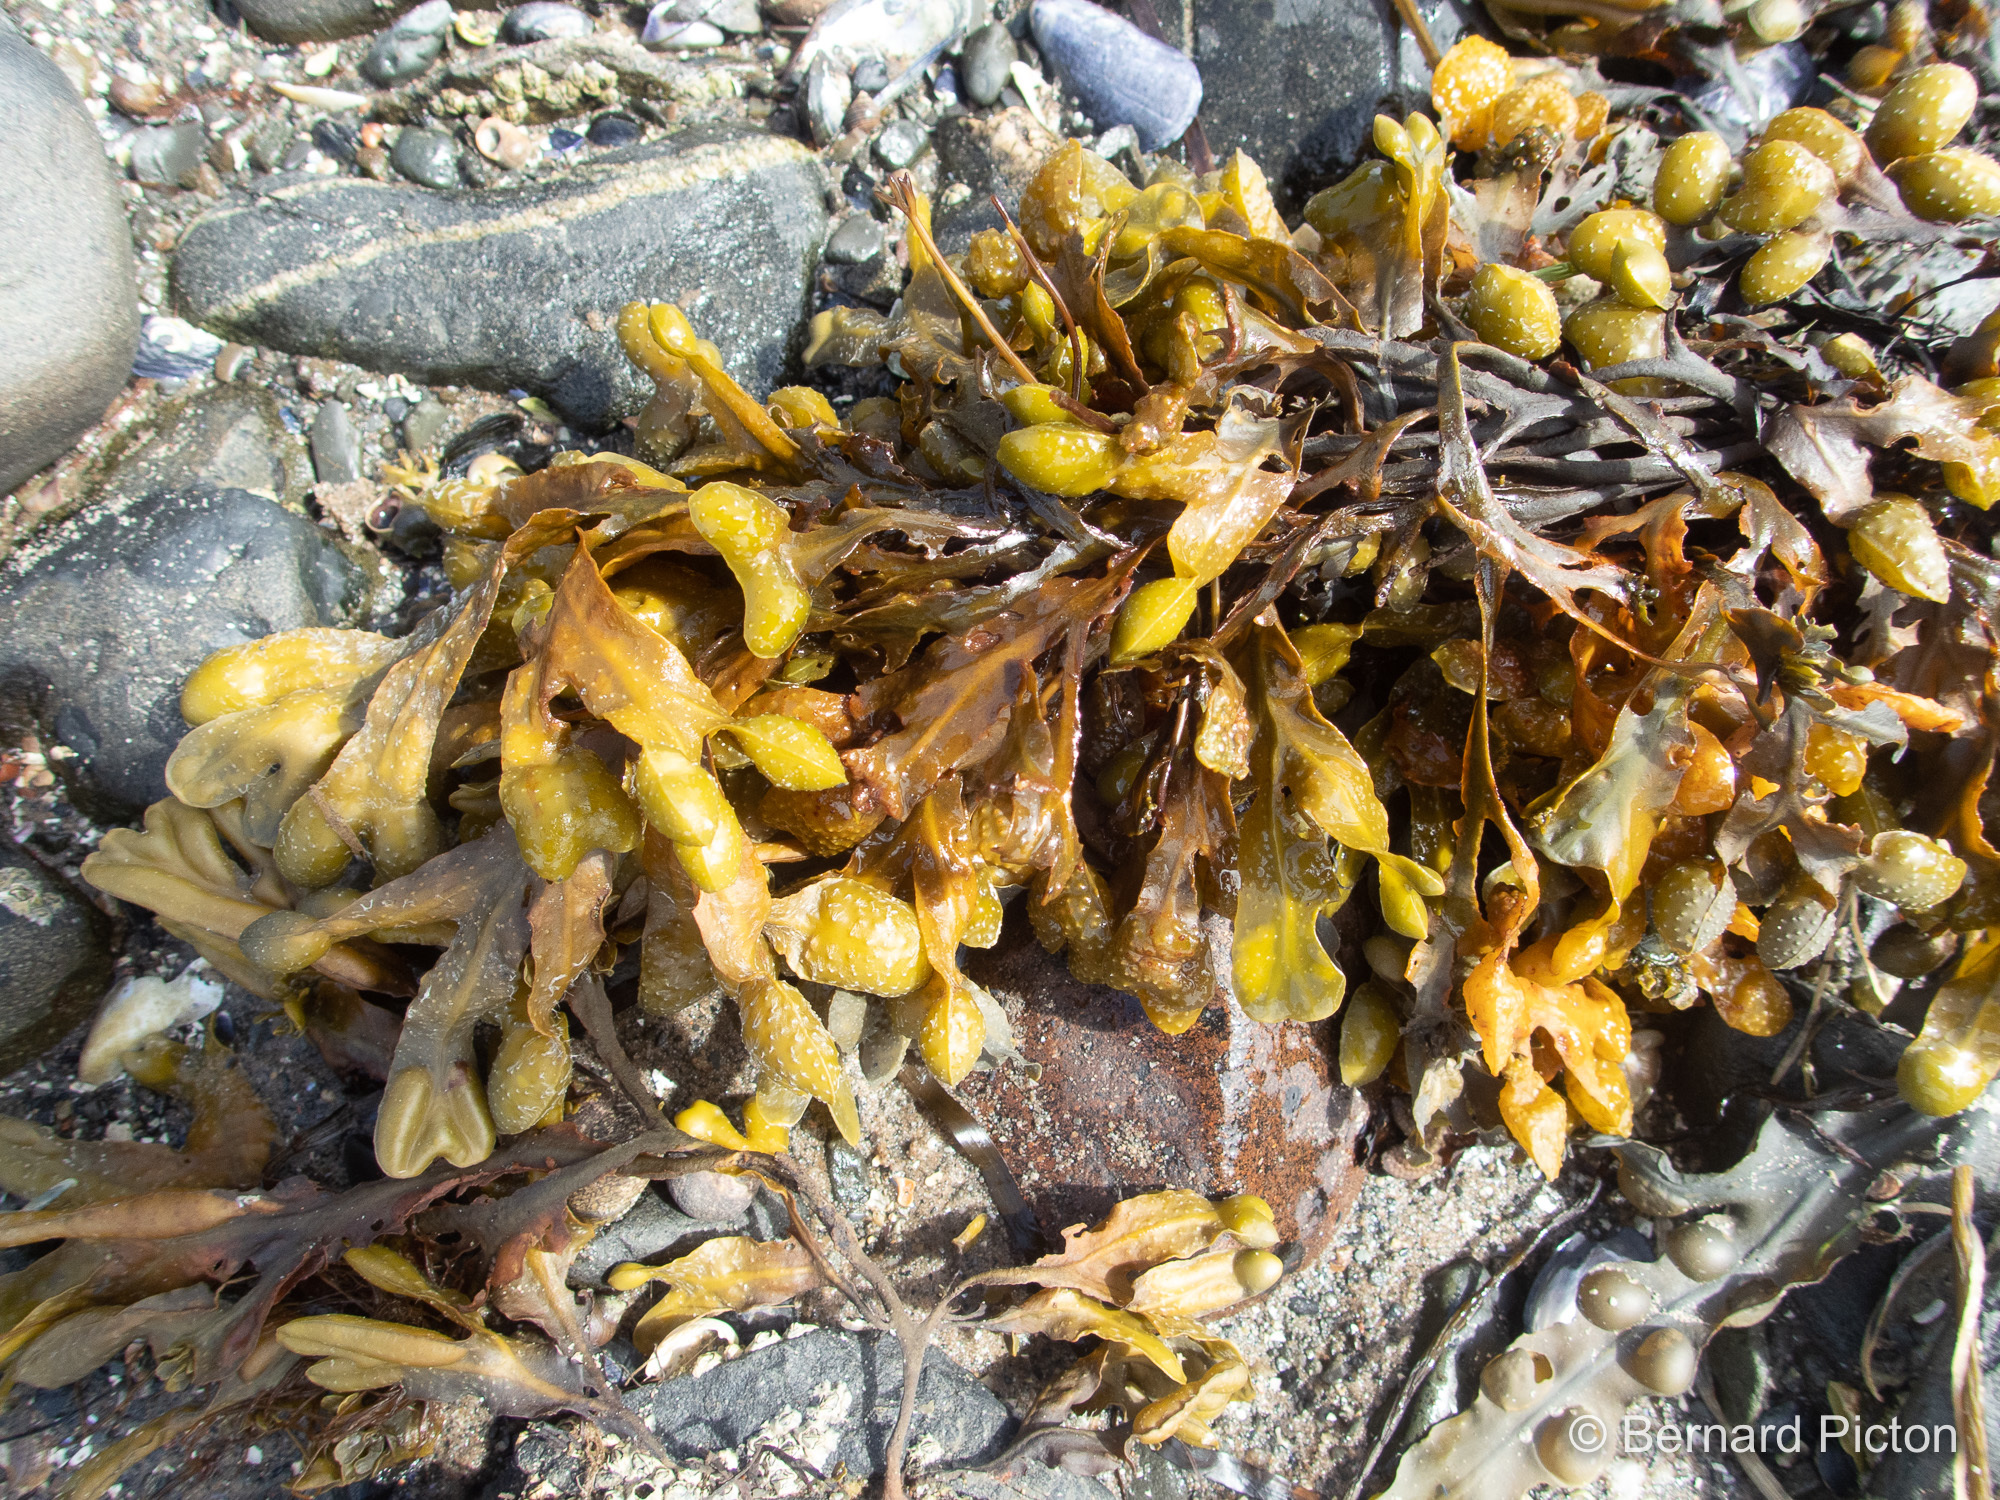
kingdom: Chromista
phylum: Ochrophyta
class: Phaeophyceae
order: Fucales
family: Fucaceae
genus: Fucus
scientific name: Fucus spiralis
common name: Spiral wrack
